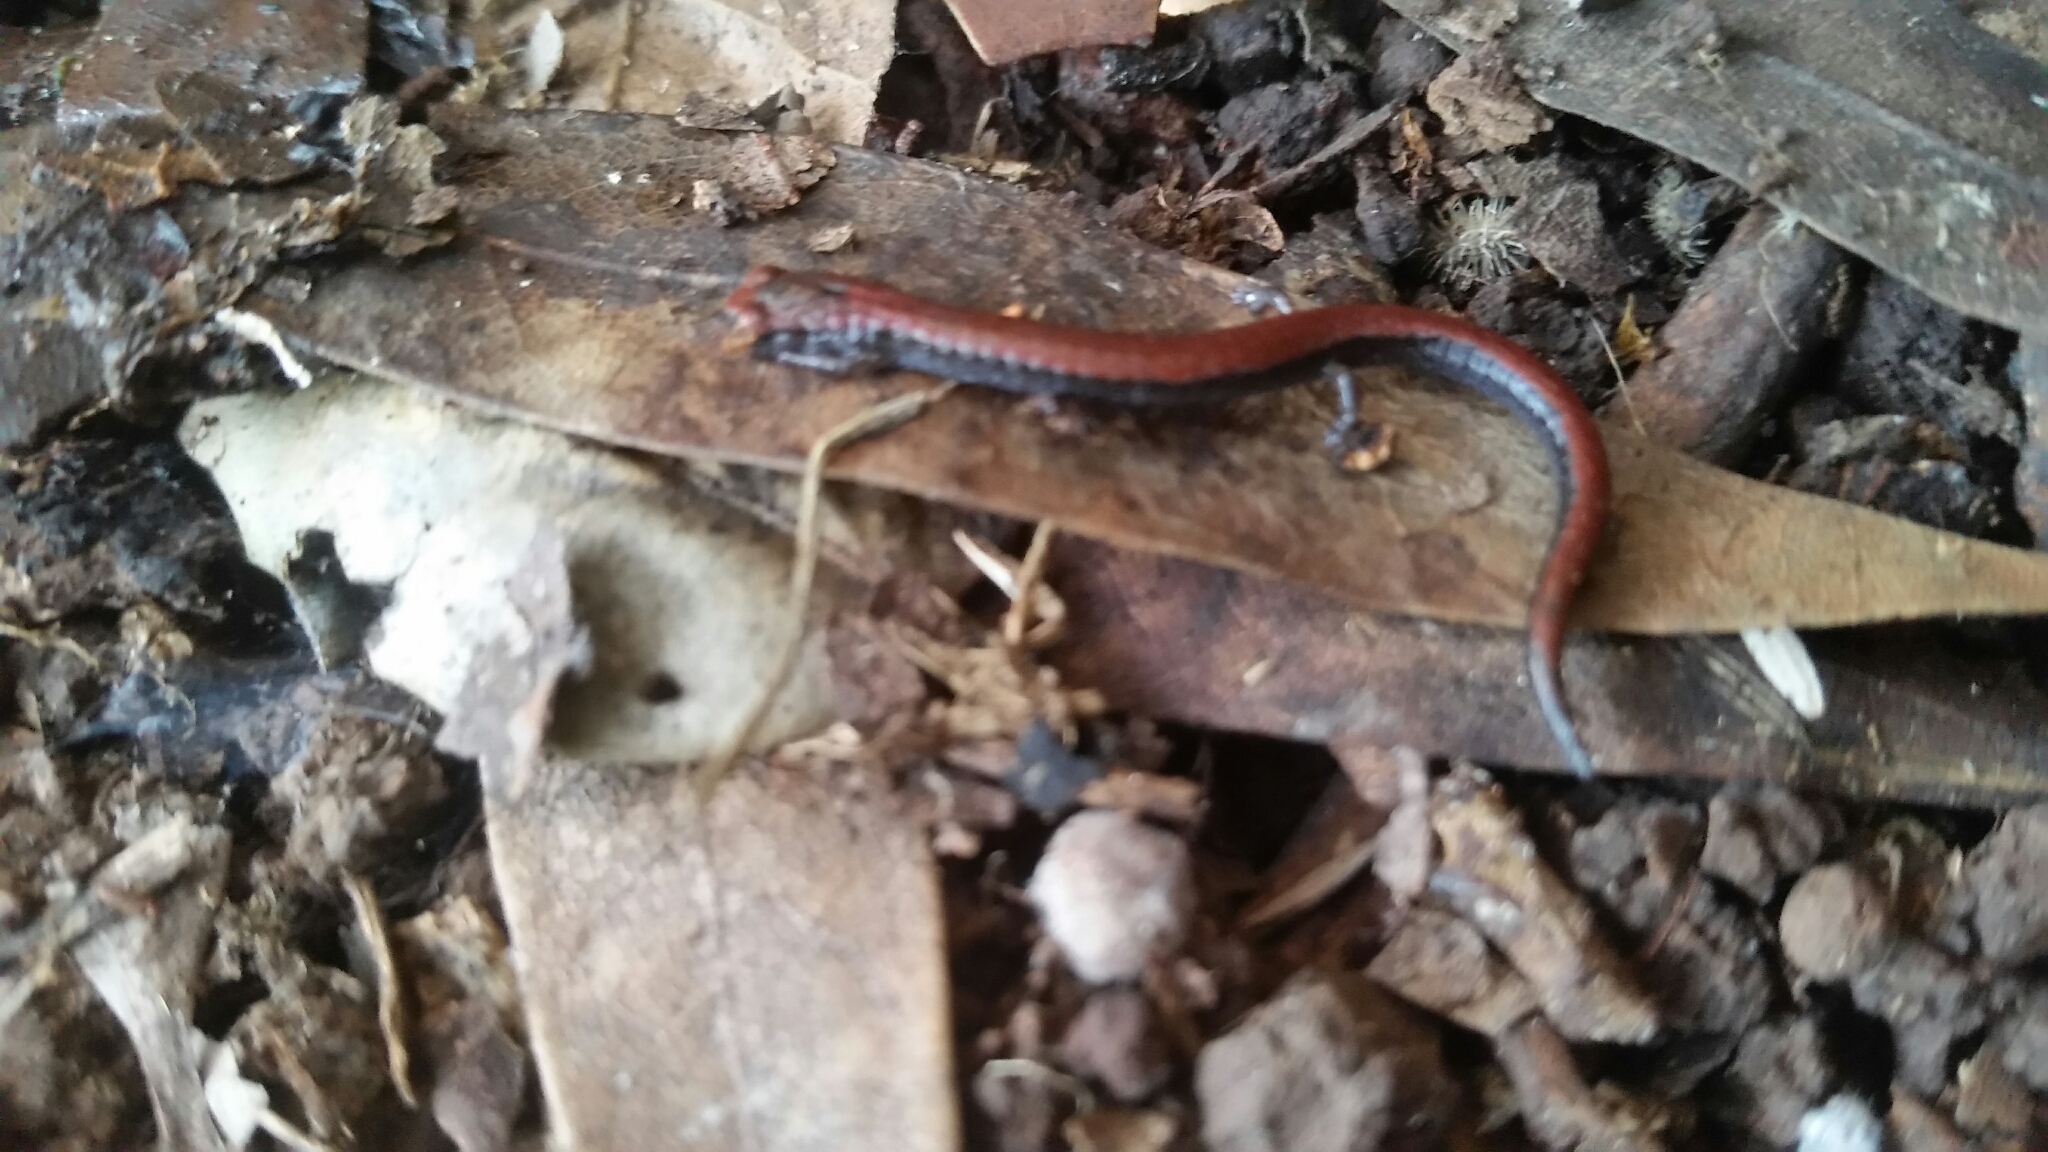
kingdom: Animalia
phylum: Chordata
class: Amphibia
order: Caudata
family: Plethodontidae
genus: Batrachoseps
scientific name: Batrachoseps attenuatus
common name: California slender salamander
